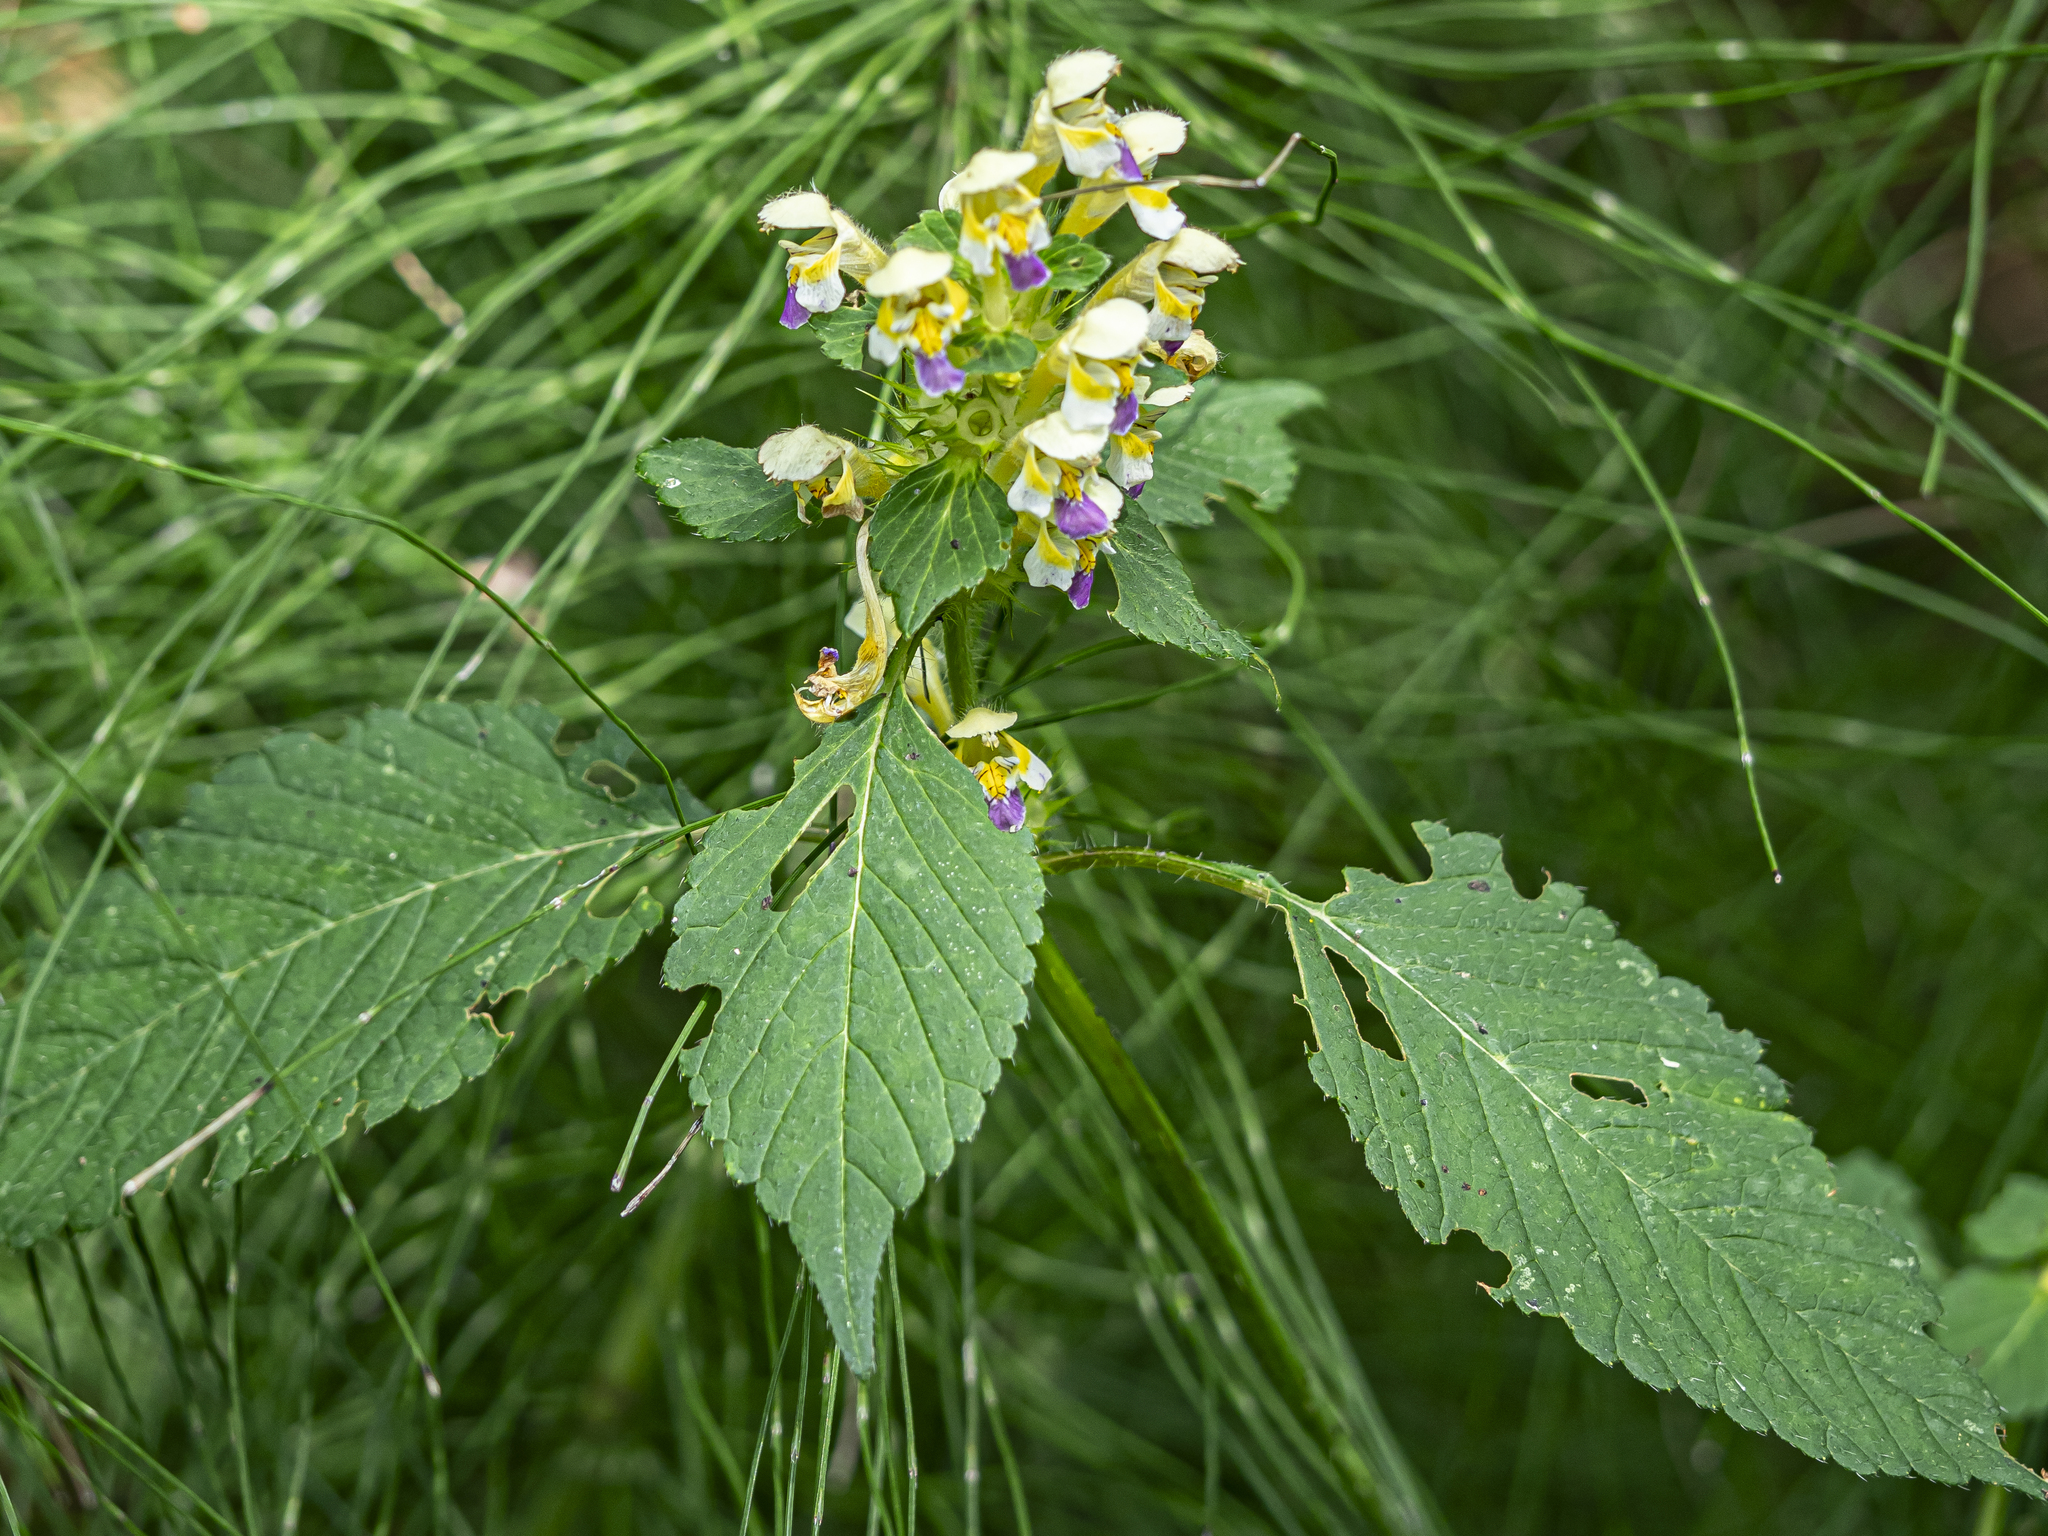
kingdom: Plantae
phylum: Tracheophyta
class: Magnoliopsida
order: Lamiales
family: Lamiaceae
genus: Galeopsis
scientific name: Galeopsis speciosa
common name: Large-flowered hemp-nettle
